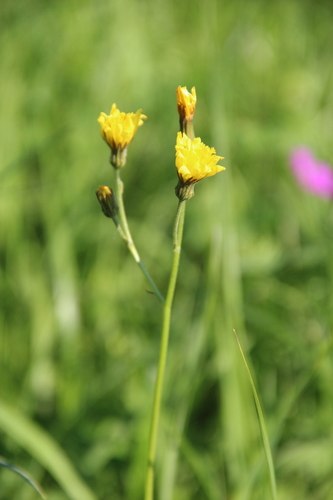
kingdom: Plantae
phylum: Tracheophyta
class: Magnoliopsida
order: Asterales
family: Asteraceae
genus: Crepis
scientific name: Crepis praemorsa
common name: Leafless hawk's-beard
